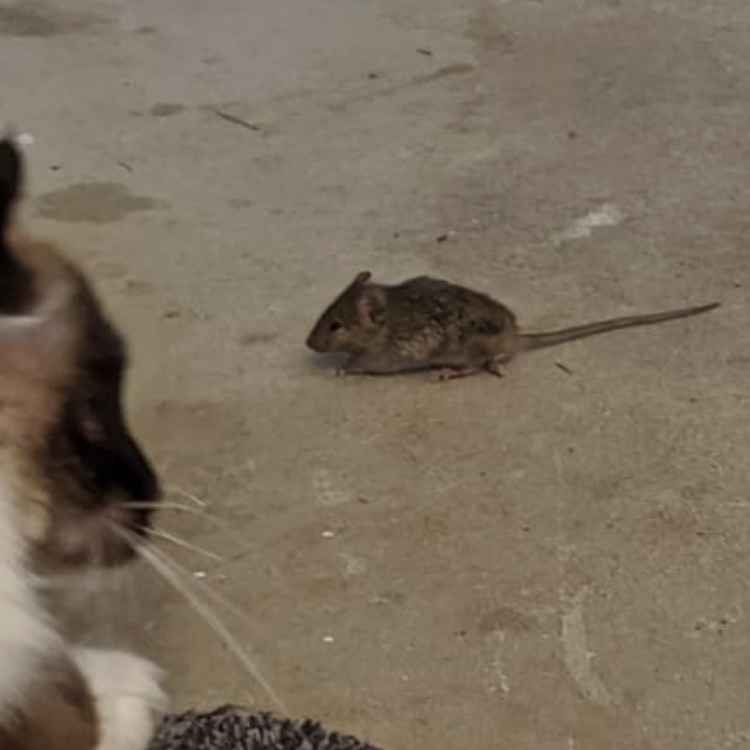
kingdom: Animalia
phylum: Chordata
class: Mammalia
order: Rodentia
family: Muridae
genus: Mus
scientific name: Mus musculus
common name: House mouse
